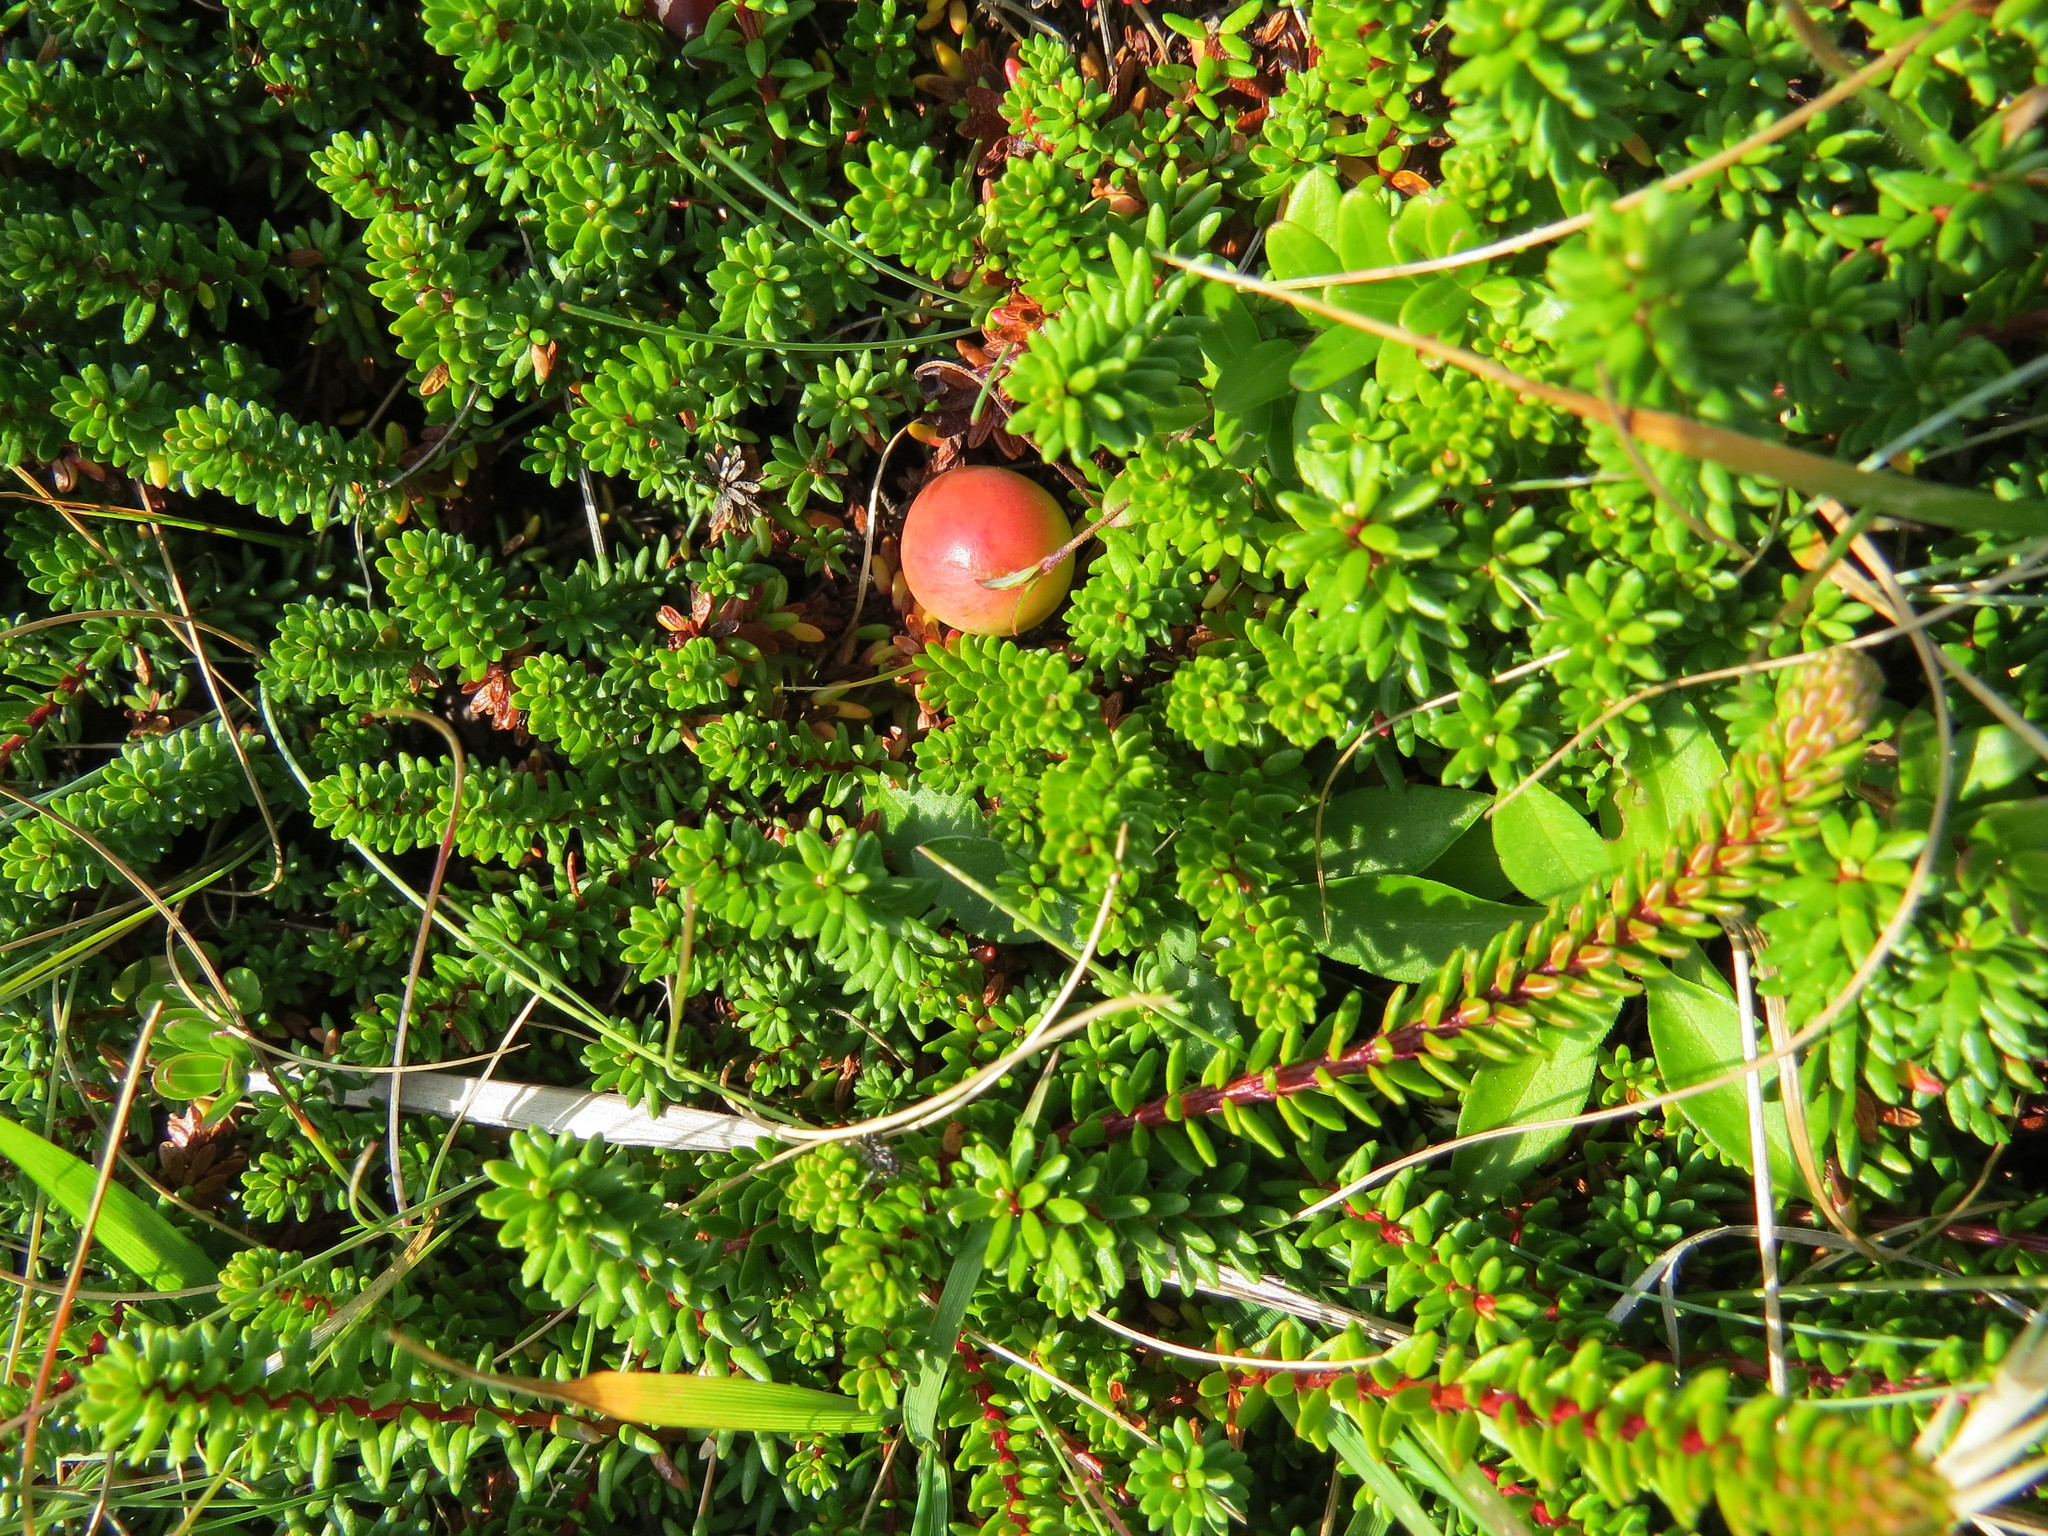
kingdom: Plantae
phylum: Tracheophyta
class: Magnoliopsida
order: Ericales
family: Ericaceae
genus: Vaccinium
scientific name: Vaccinium macrocarpon
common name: American cranberry
